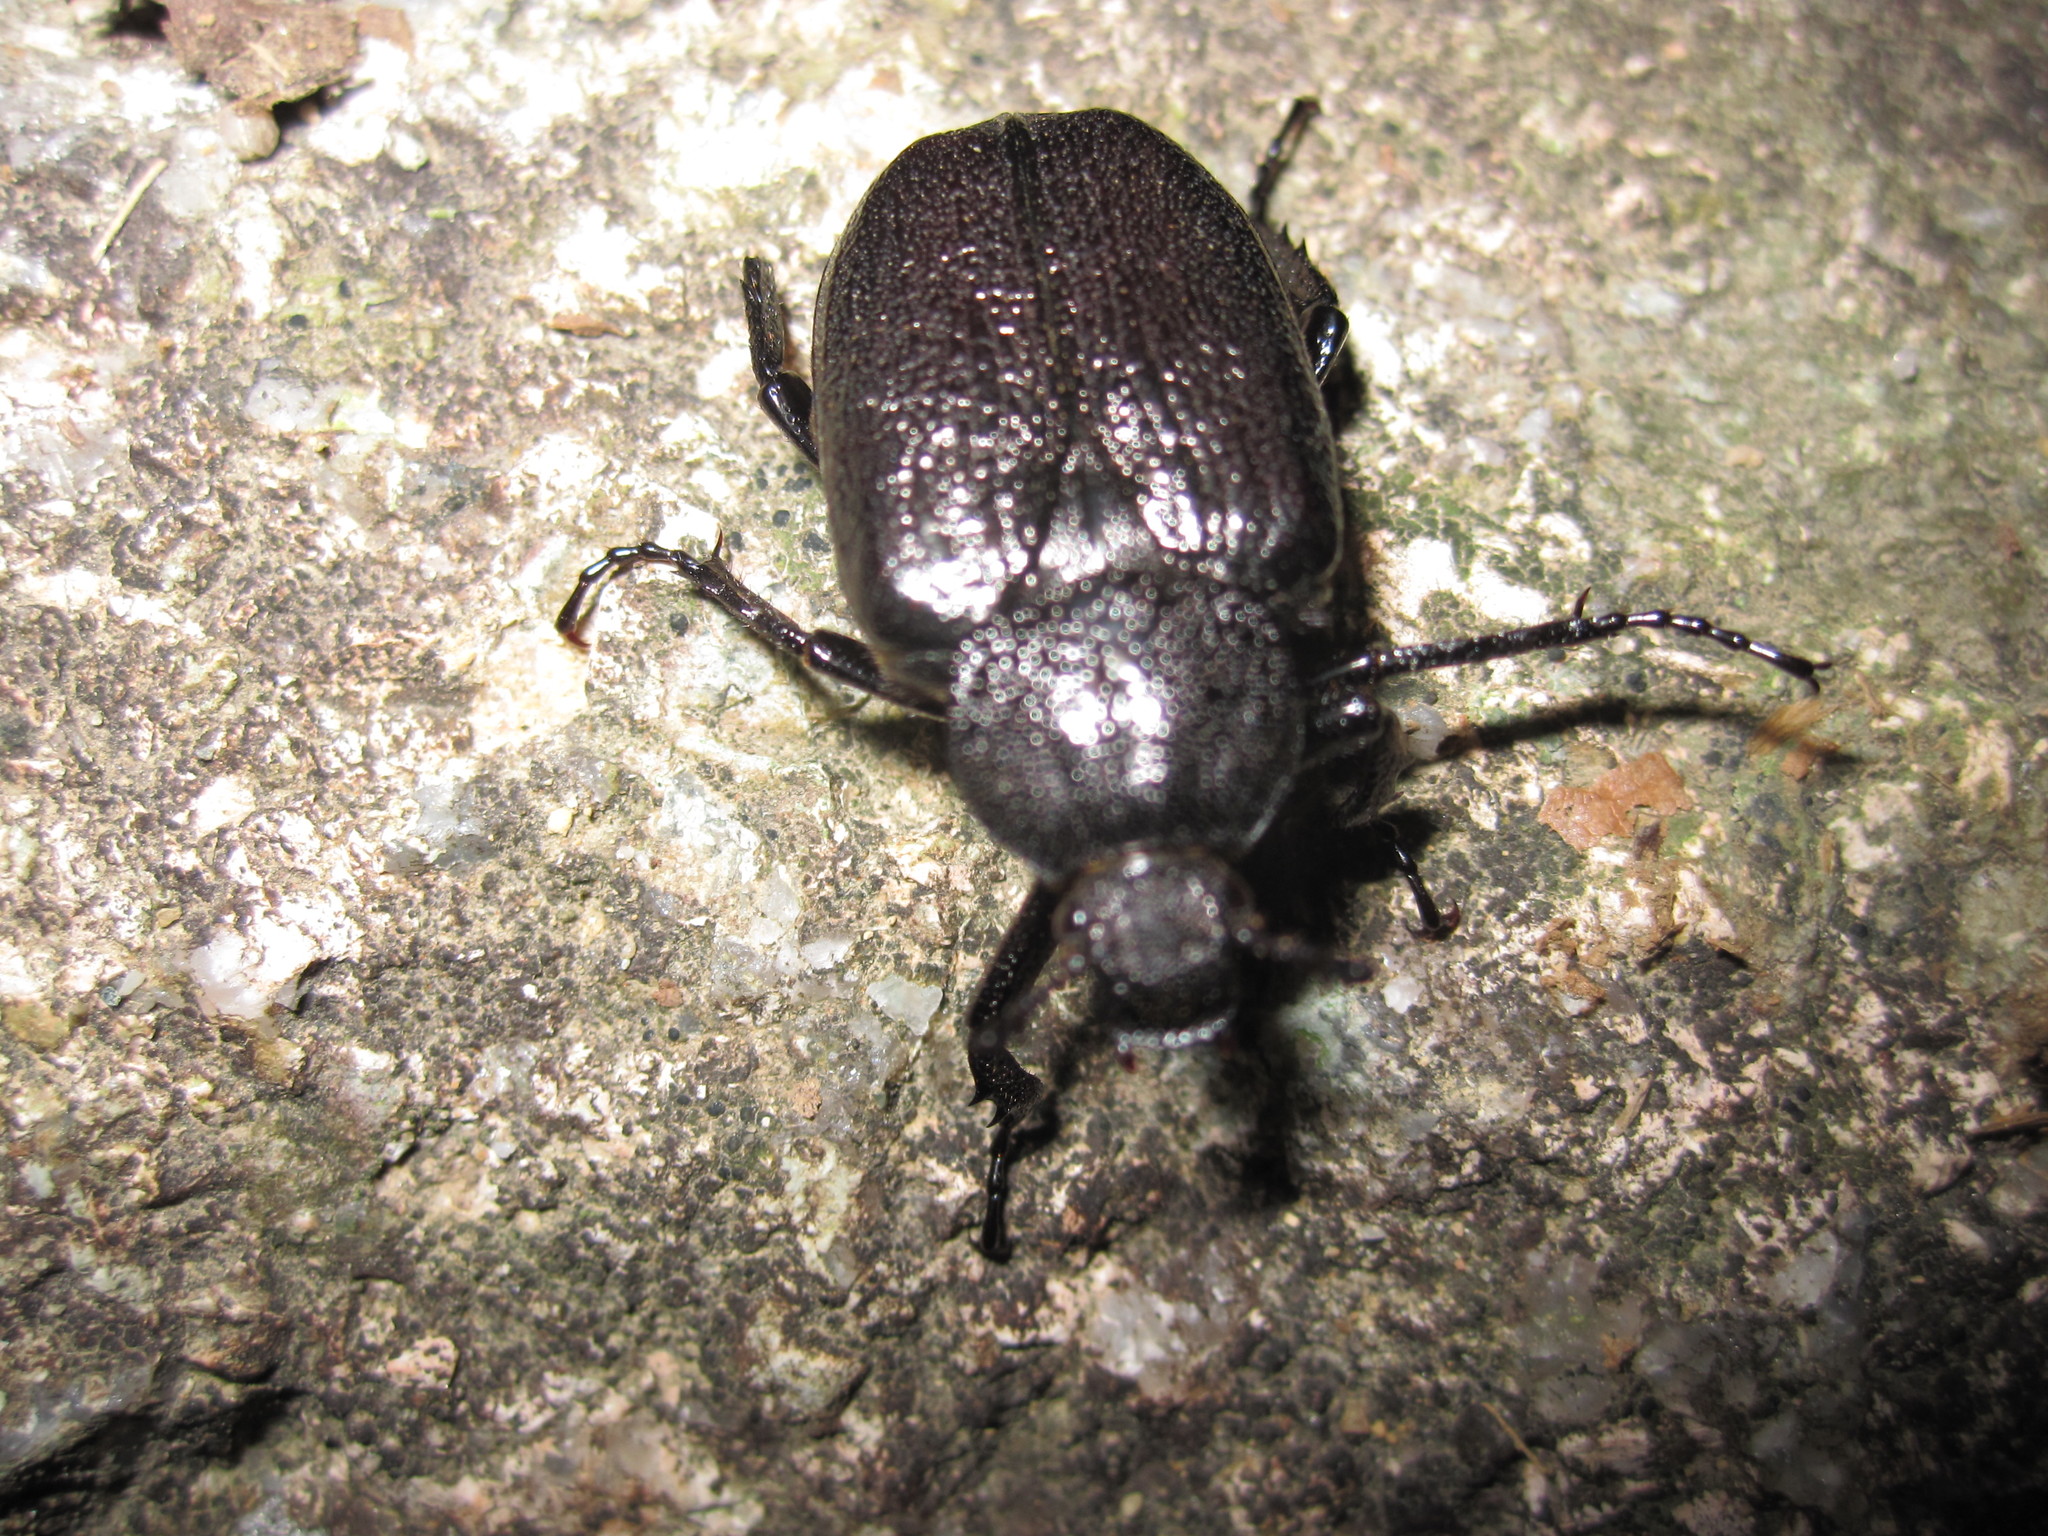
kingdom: Animalia
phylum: Arthropoda
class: Insecta
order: Coleoptera
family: Scarabaeidae
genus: Osmoderma
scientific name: Osmoderma scabra
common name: Rough hermit beetle
